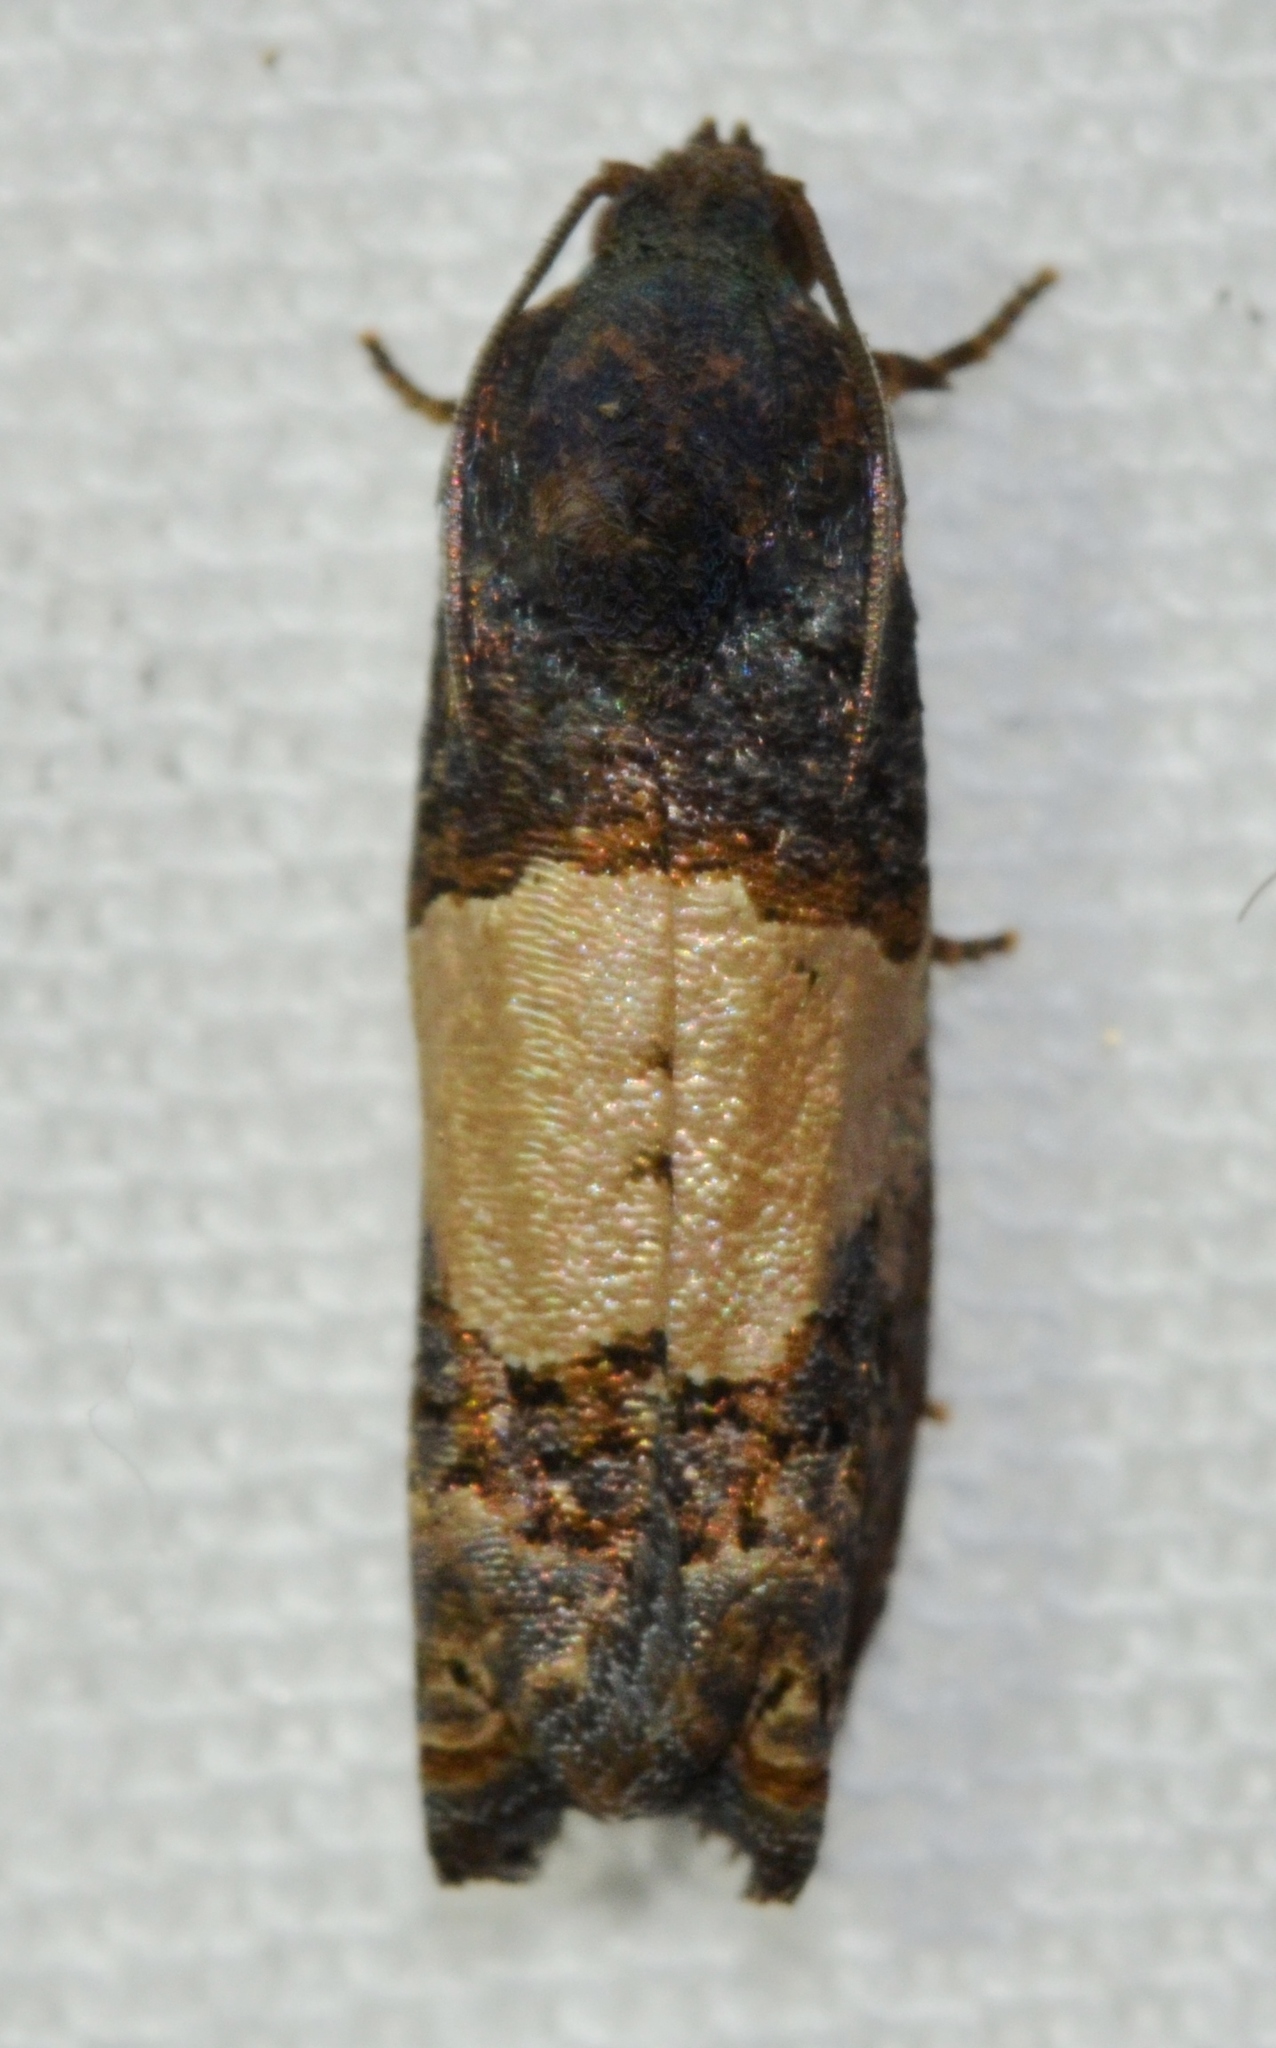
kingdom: Animalia
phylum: Arthropoda
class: Insecta
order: Lepidoptera
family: Tortricidae
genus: Epiblema
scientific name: Epiblema glenni
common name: Glenn's epiblema
